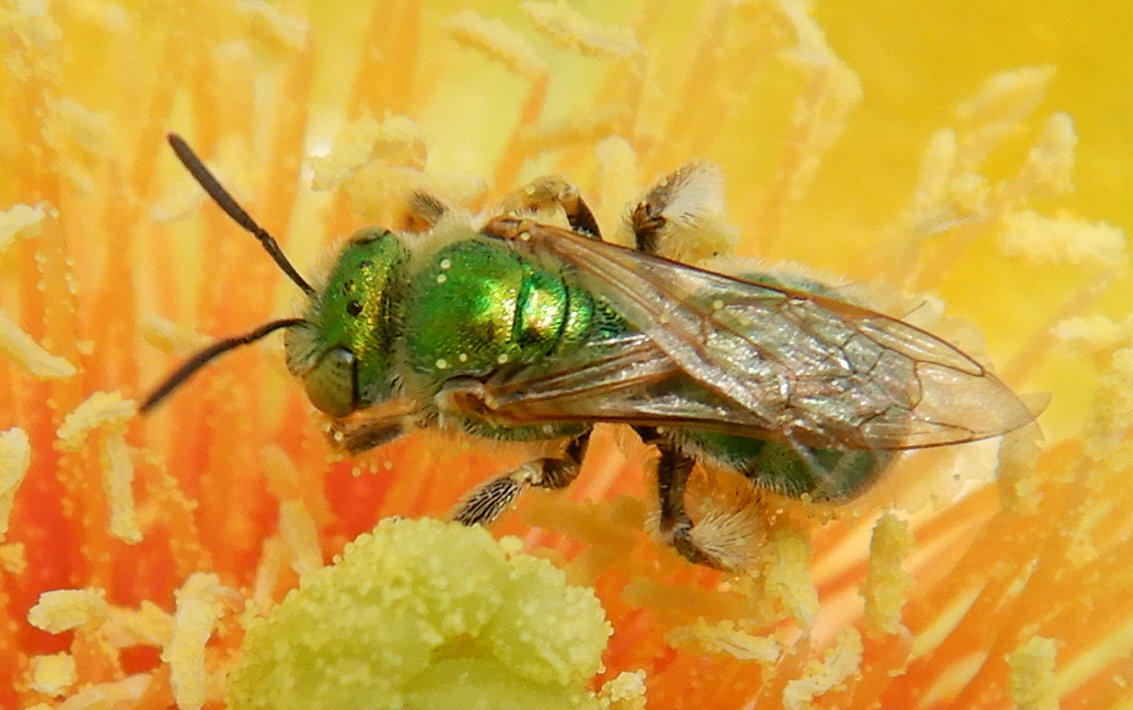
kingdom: Animalia
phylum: Arthropoda
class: Insecta
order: Hymenoptera
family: Halictidae
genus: Agapostemon
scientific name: Agapostemon
